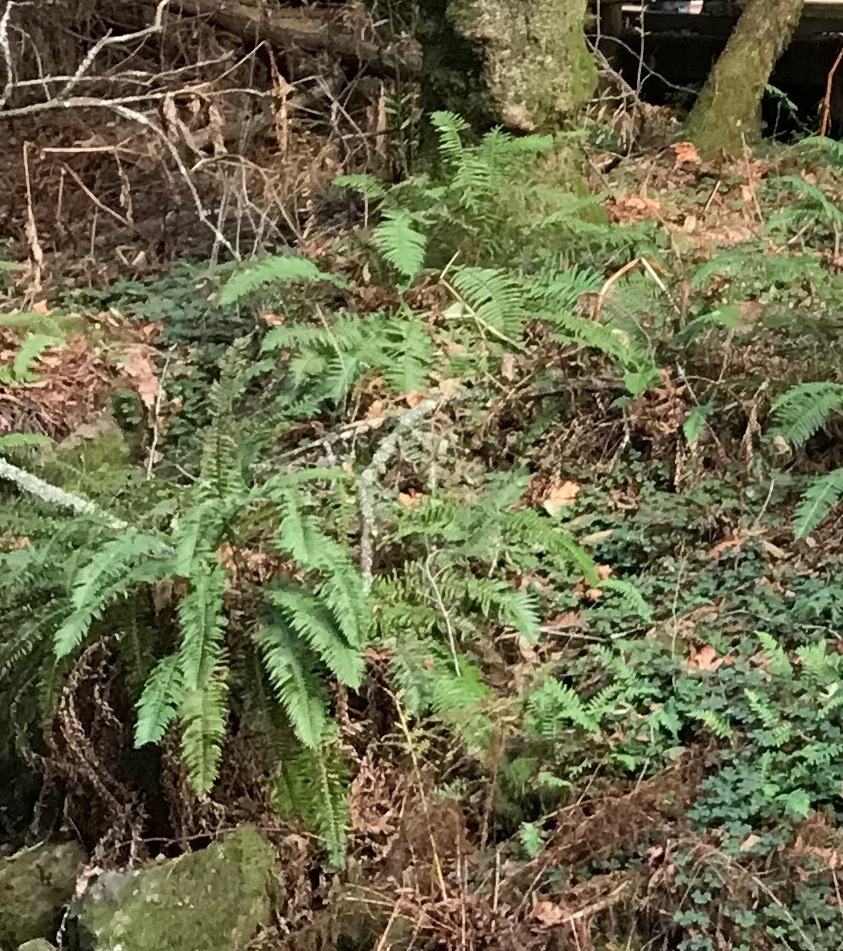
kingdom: Plantae
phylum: Tracheophyta
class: Polypodiopsida
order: Polypodiales
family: Dryopteridaceae
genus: Polystichum
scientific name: Polystichum munitum
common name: Western sword-fern
